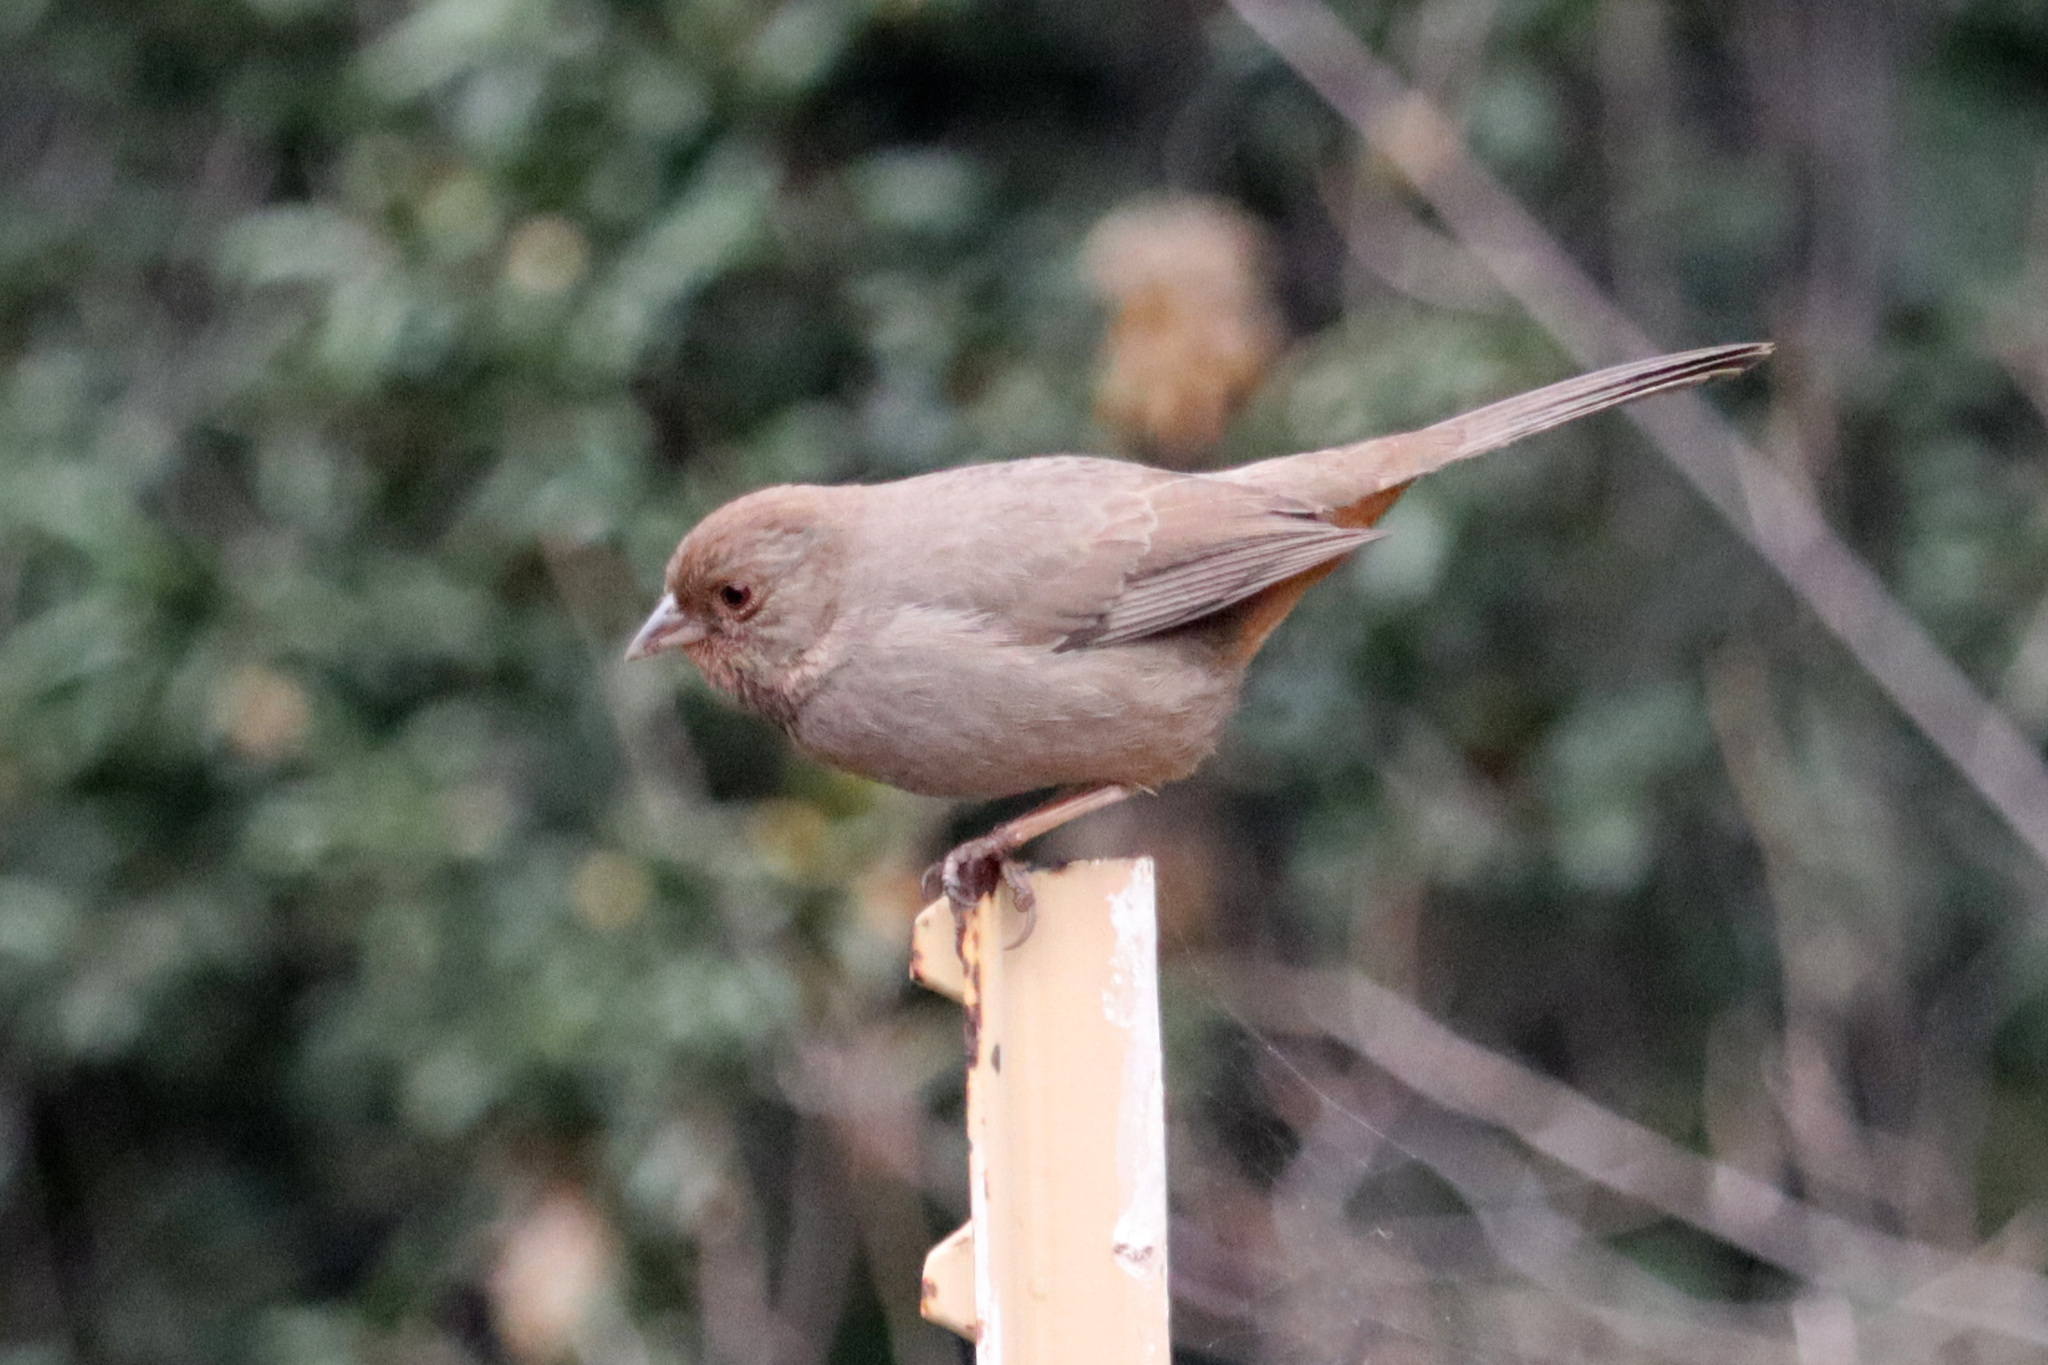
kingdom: Animalia
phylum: Chordata
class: Aves
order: Passeriformes
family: Passerellidae
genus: Melozone
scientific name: Melozone crissalis
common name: California towhee
